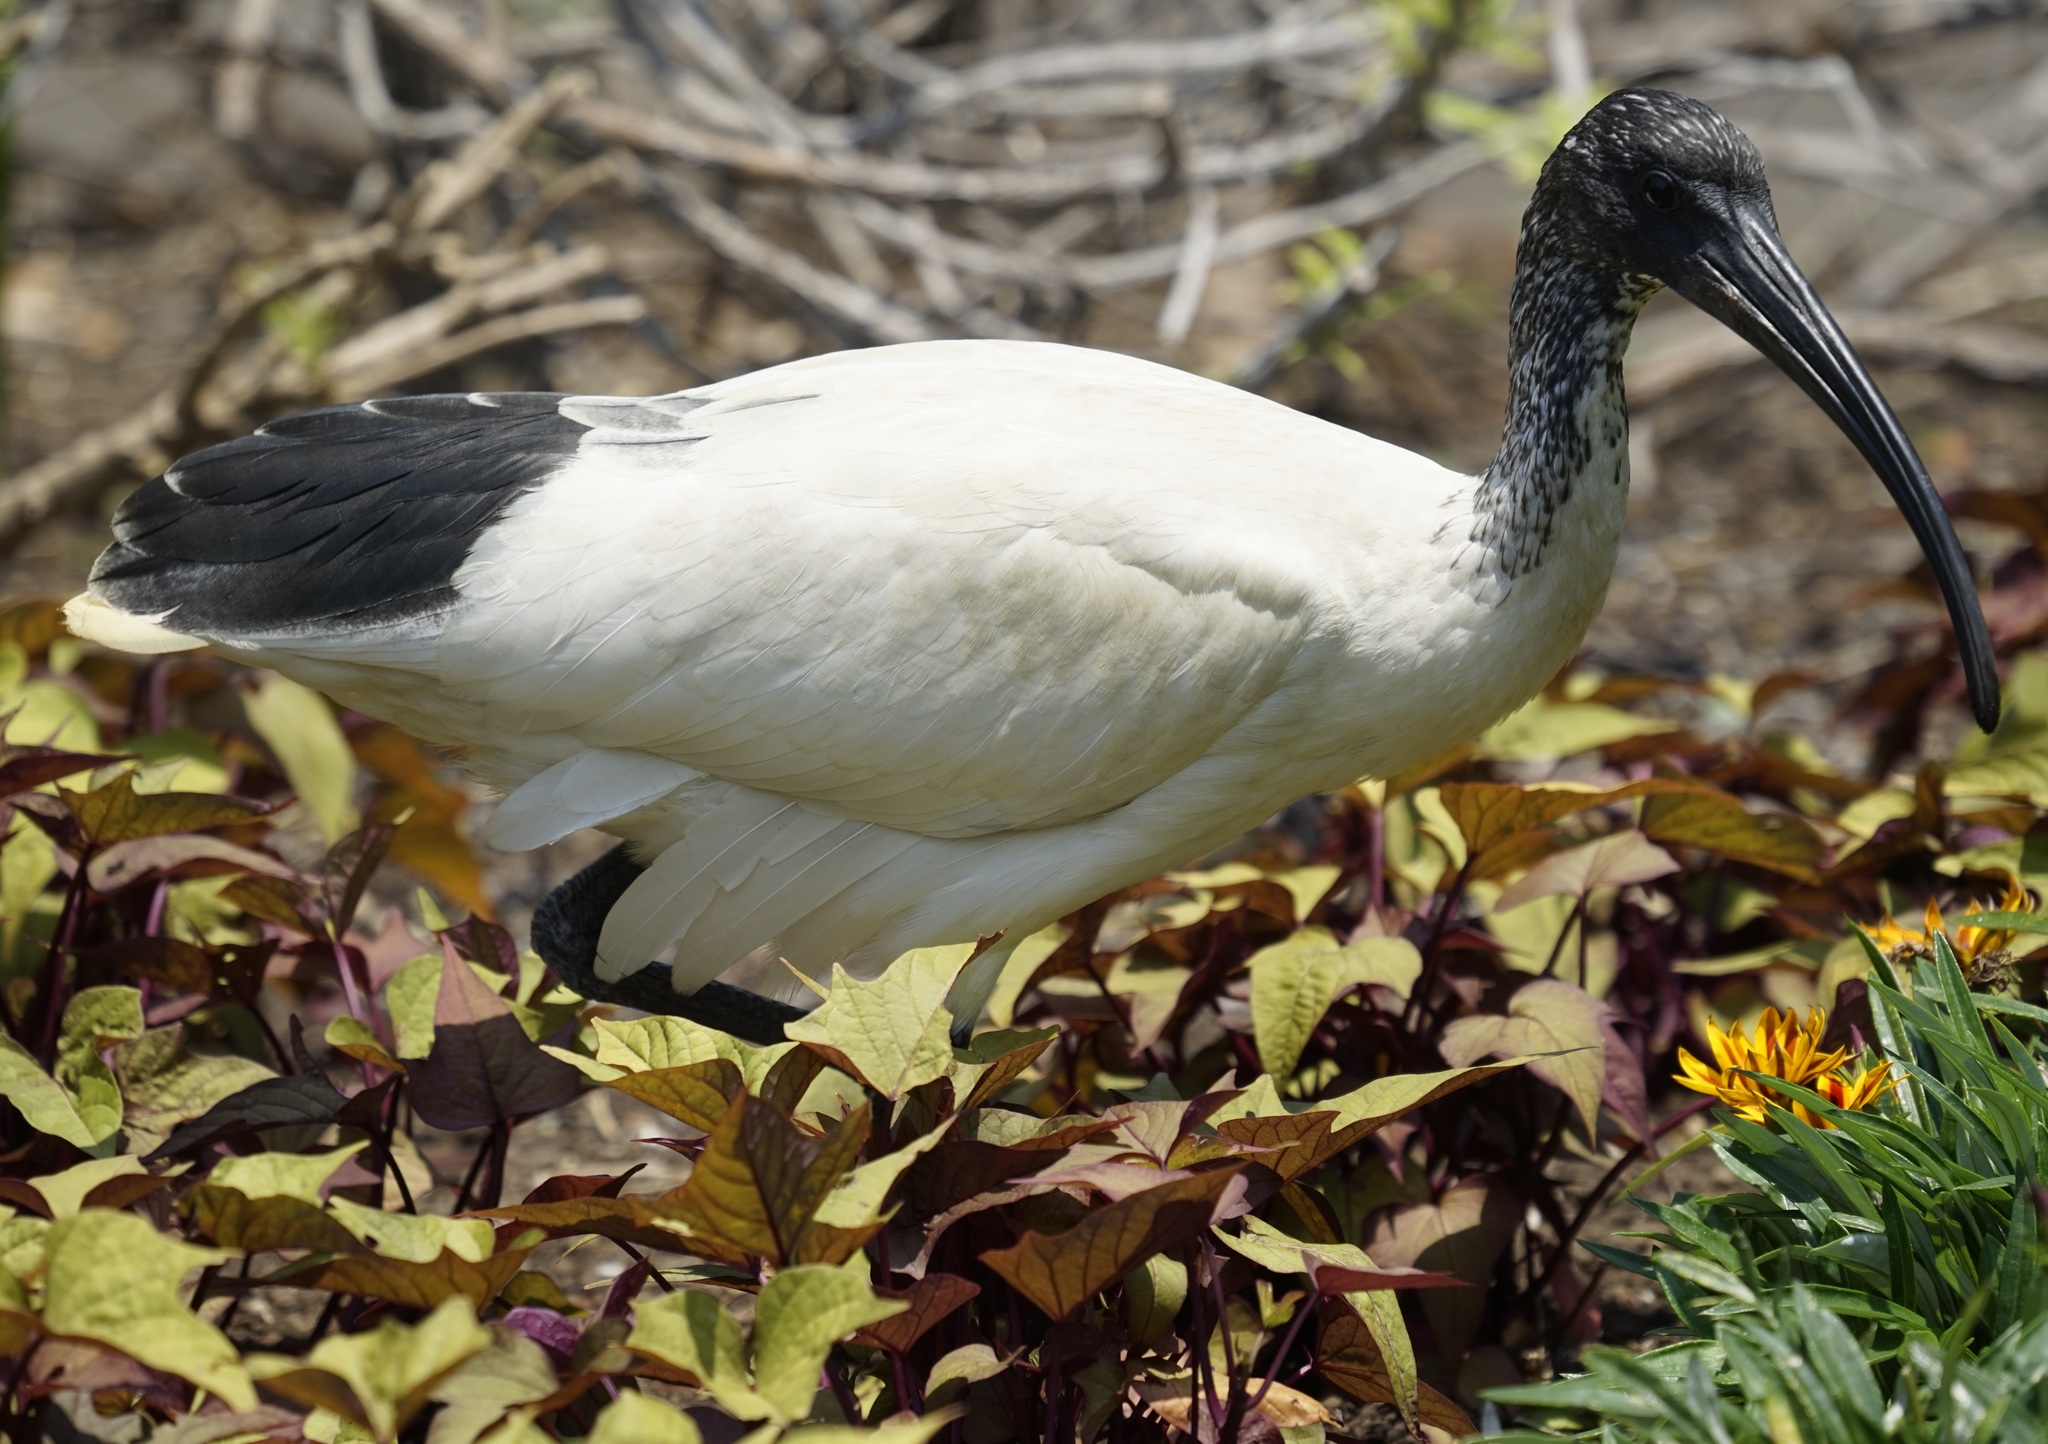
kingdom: Animalia
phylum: Chordata
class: Aves
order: Pelecaniformes
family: Threskiornithidae
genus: Threskiornis
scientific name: Threskiornis molucca
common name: Australian white ibis
